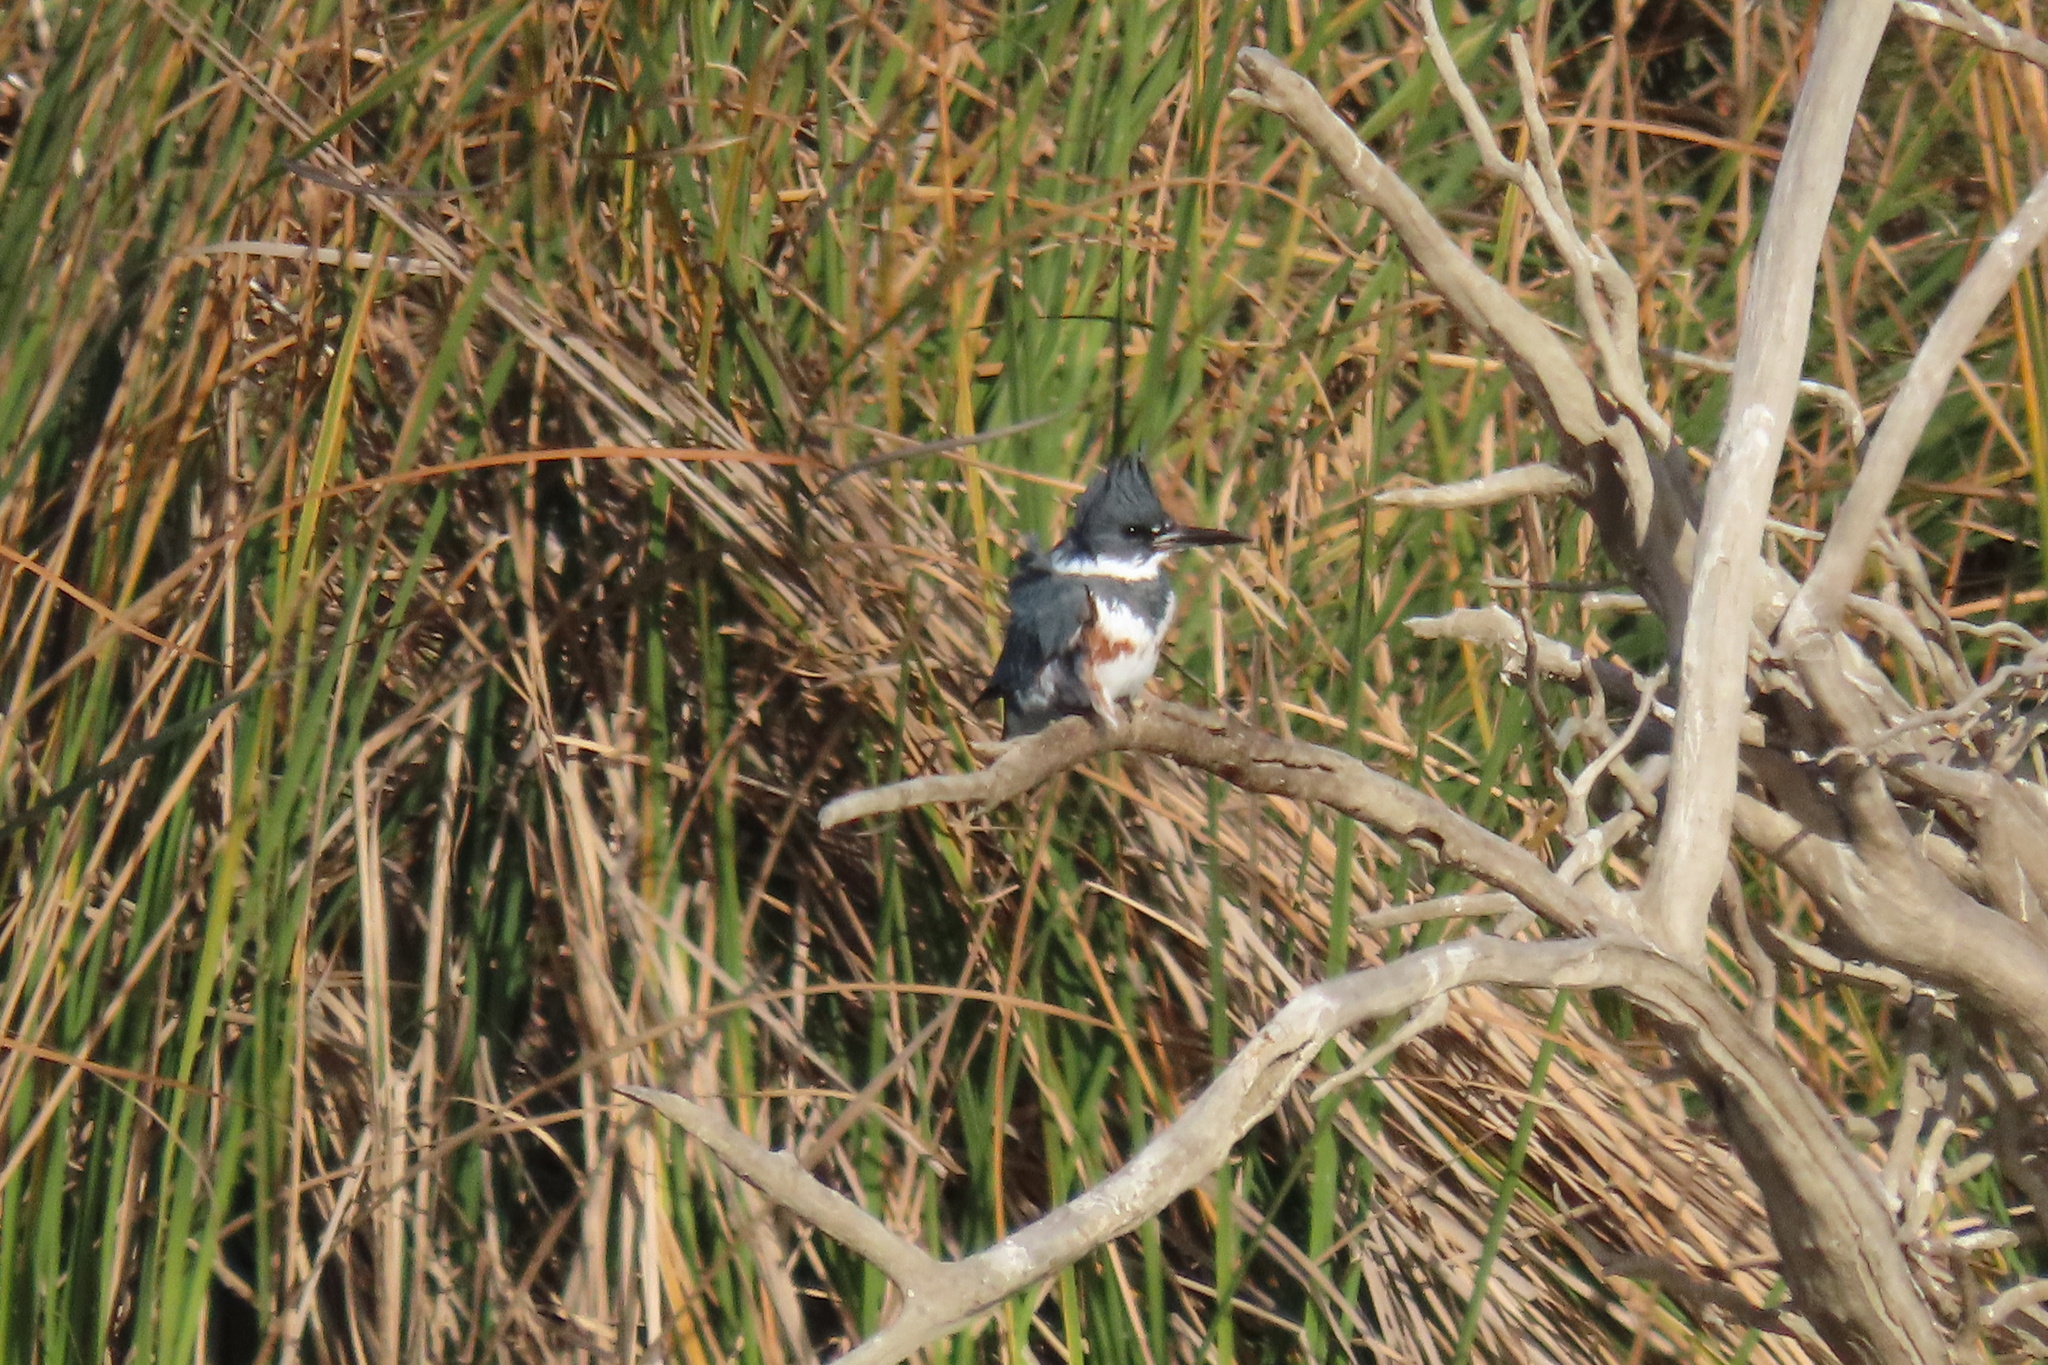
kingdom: Animalia
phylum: Chordata
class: Aves
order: Coraciiformes
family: Alcedinidae
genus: Megaceryle
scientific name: Megaceryle alcyon
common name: Belted kingfisher
